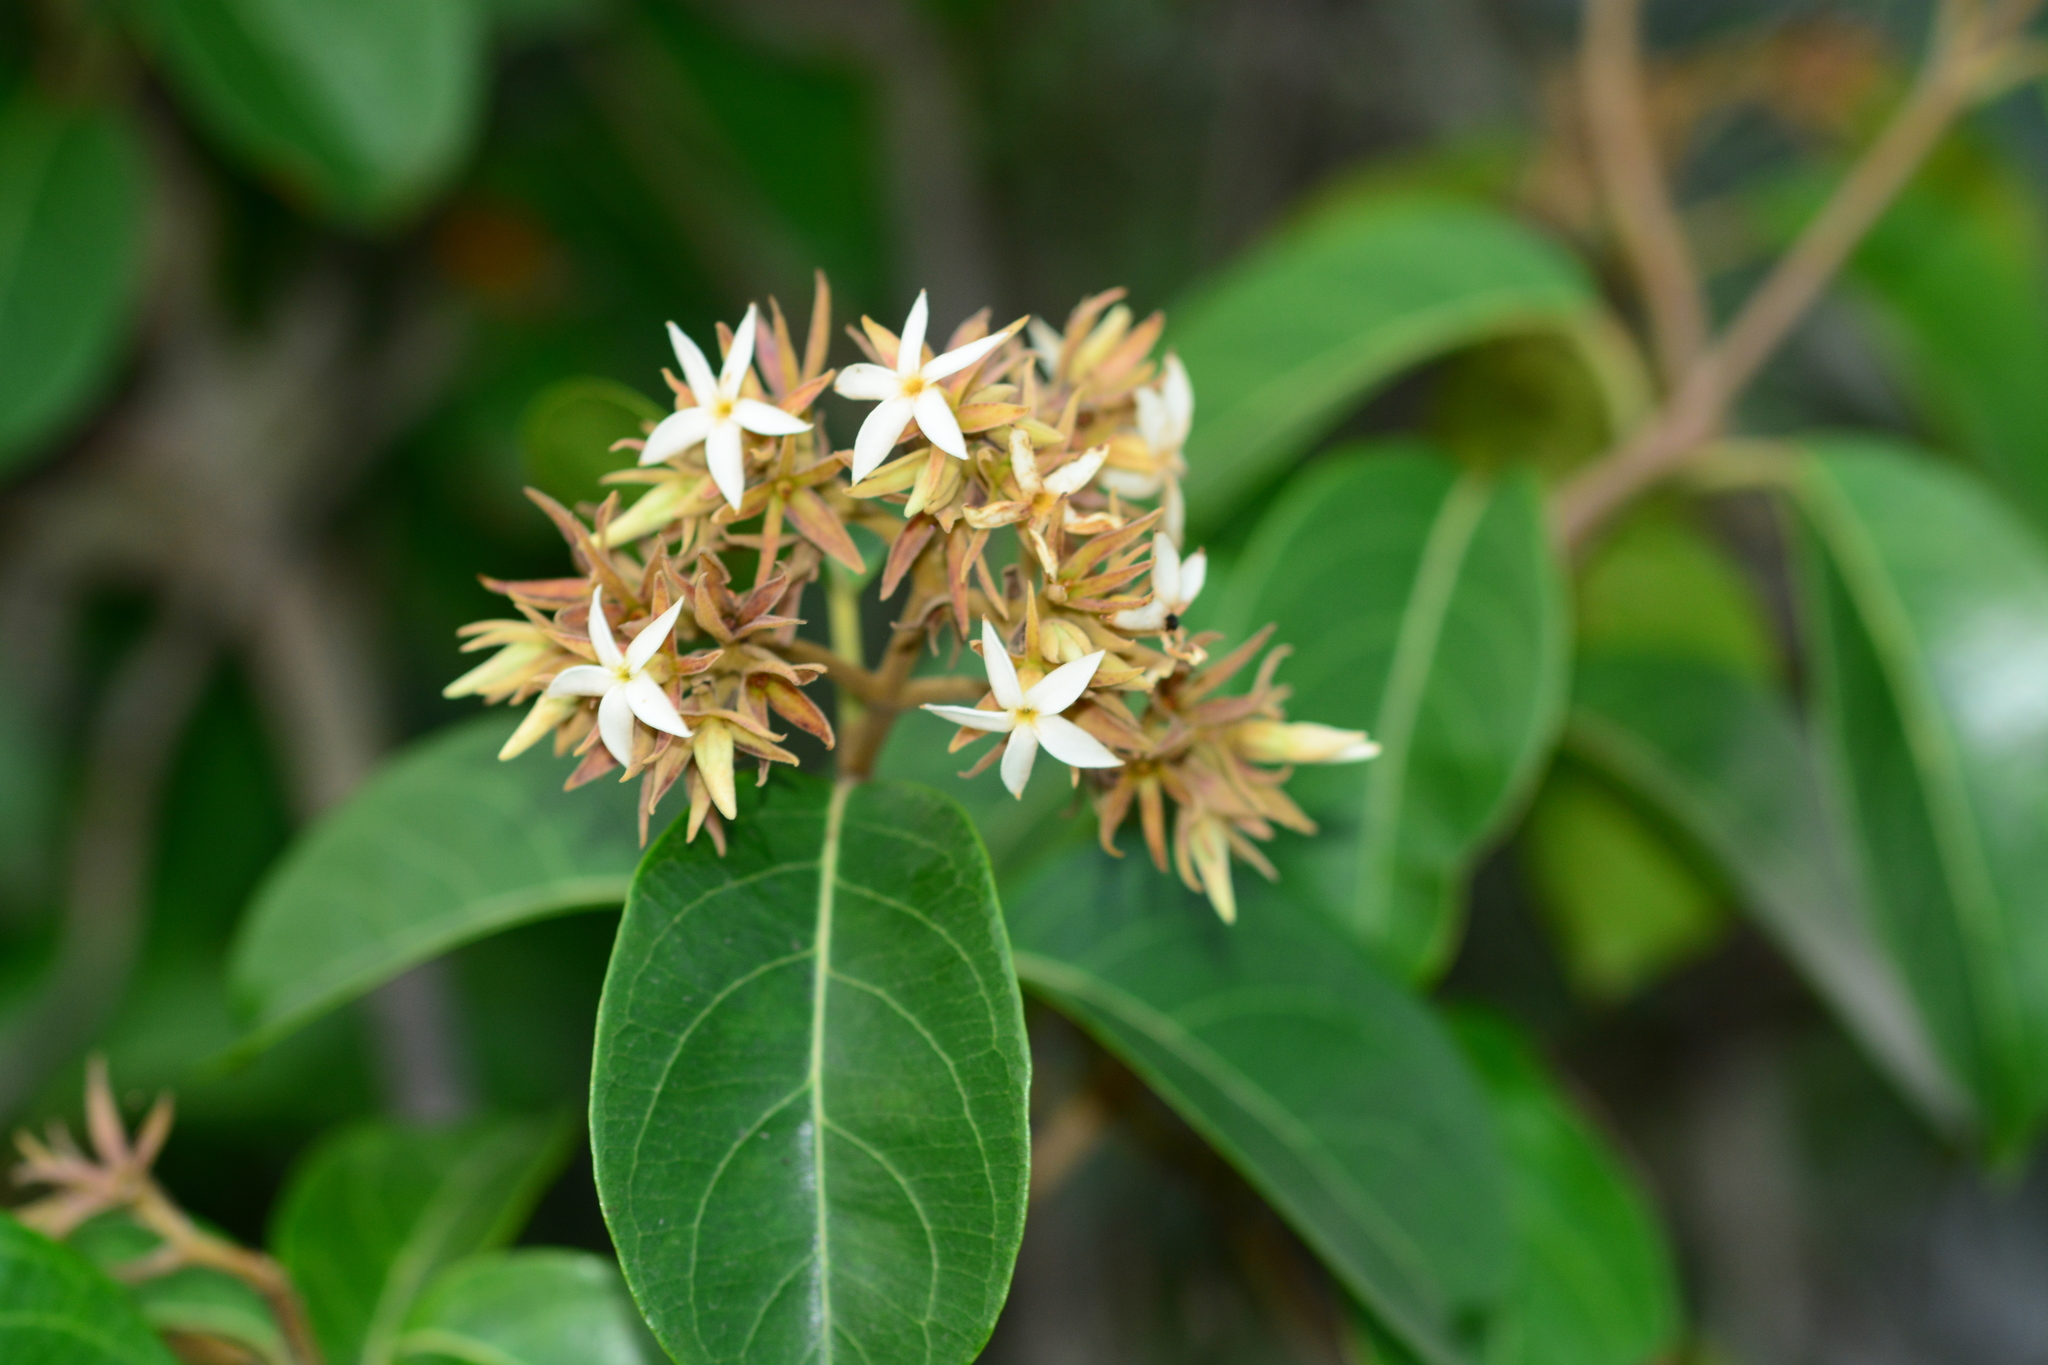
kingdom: Plantae
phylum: Tracheophyta
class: Magnoliopsida
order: Gentianales
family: Apocynaceae
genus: Aganosma
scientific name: Aganosma cymosa
